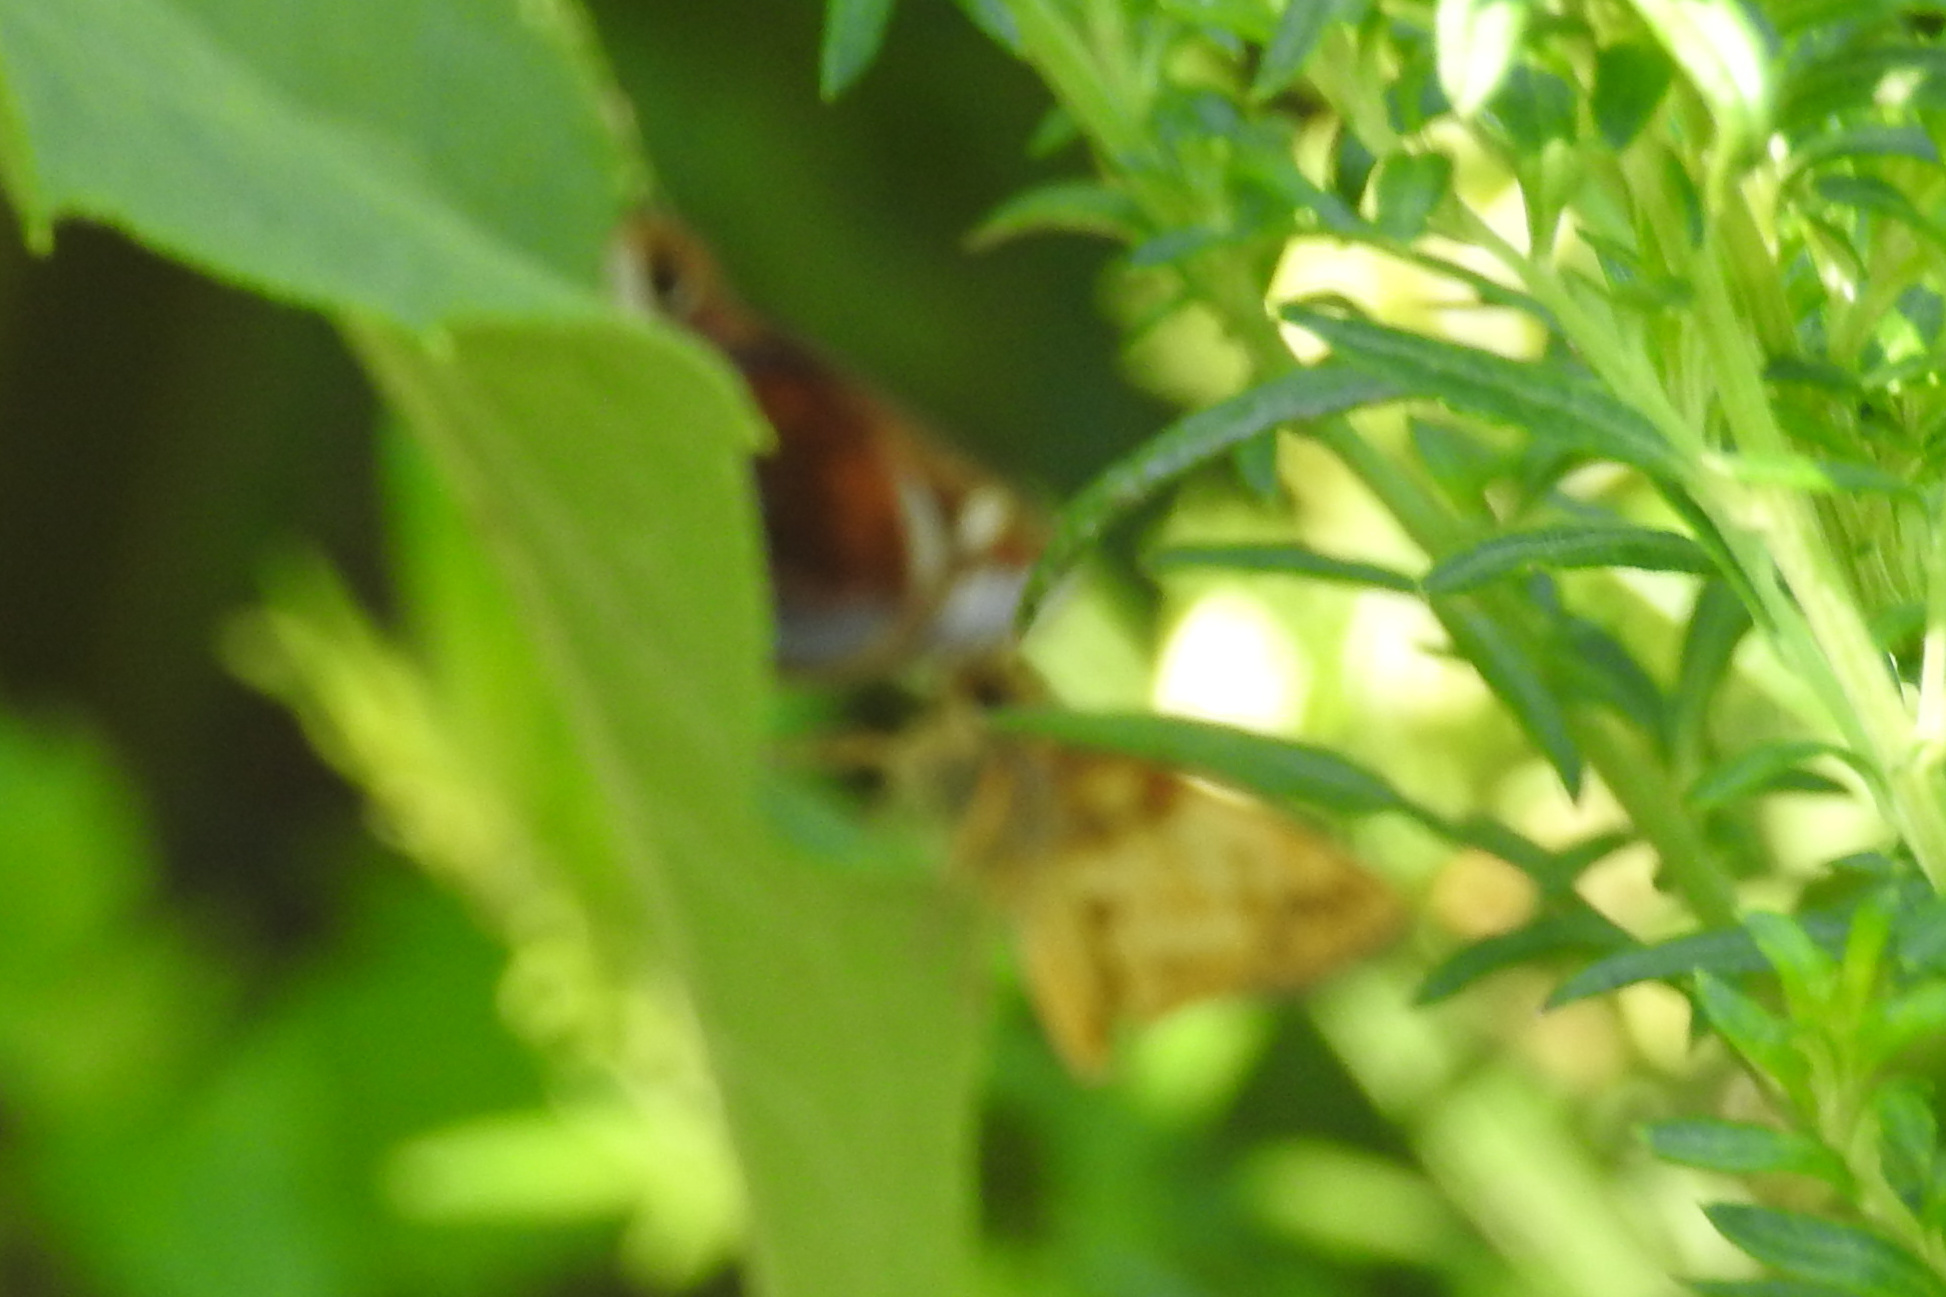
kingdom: Animalia
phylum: Arthropoda
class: Insecta
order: Lepidoptera
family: Hesperiidae
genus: Lon
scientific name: Lon zabulon
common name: Zabulon skipper
